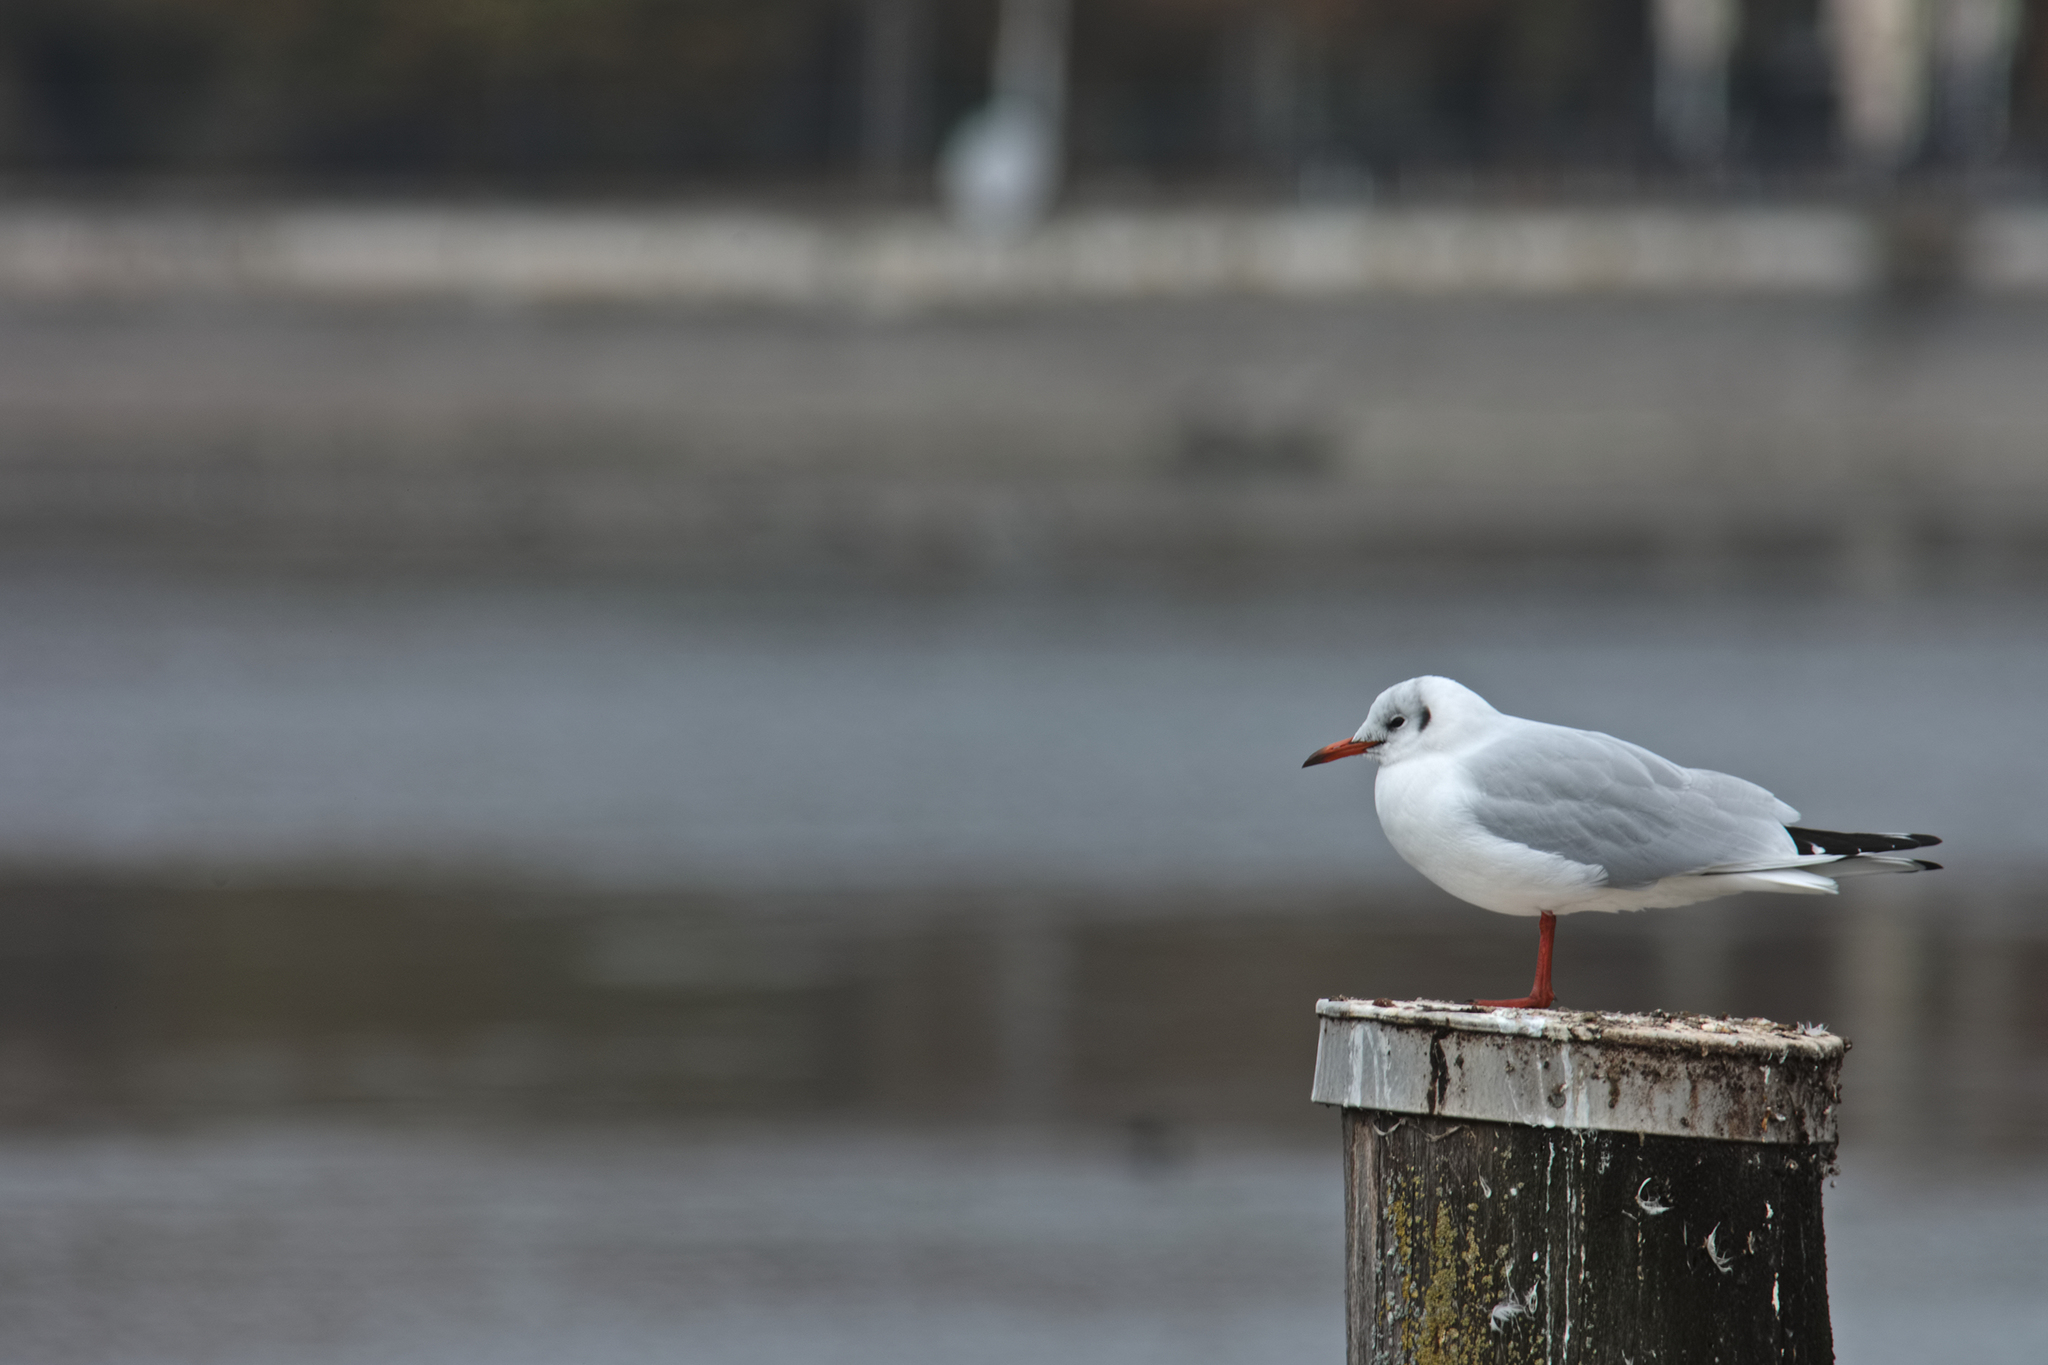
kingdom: Animalia
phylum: Chordata
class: Aves
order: Charadriiformes
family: Laridae
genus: Chroicocephalus
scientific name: Chroicocephalus ridibundus
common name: Black-headed gull
